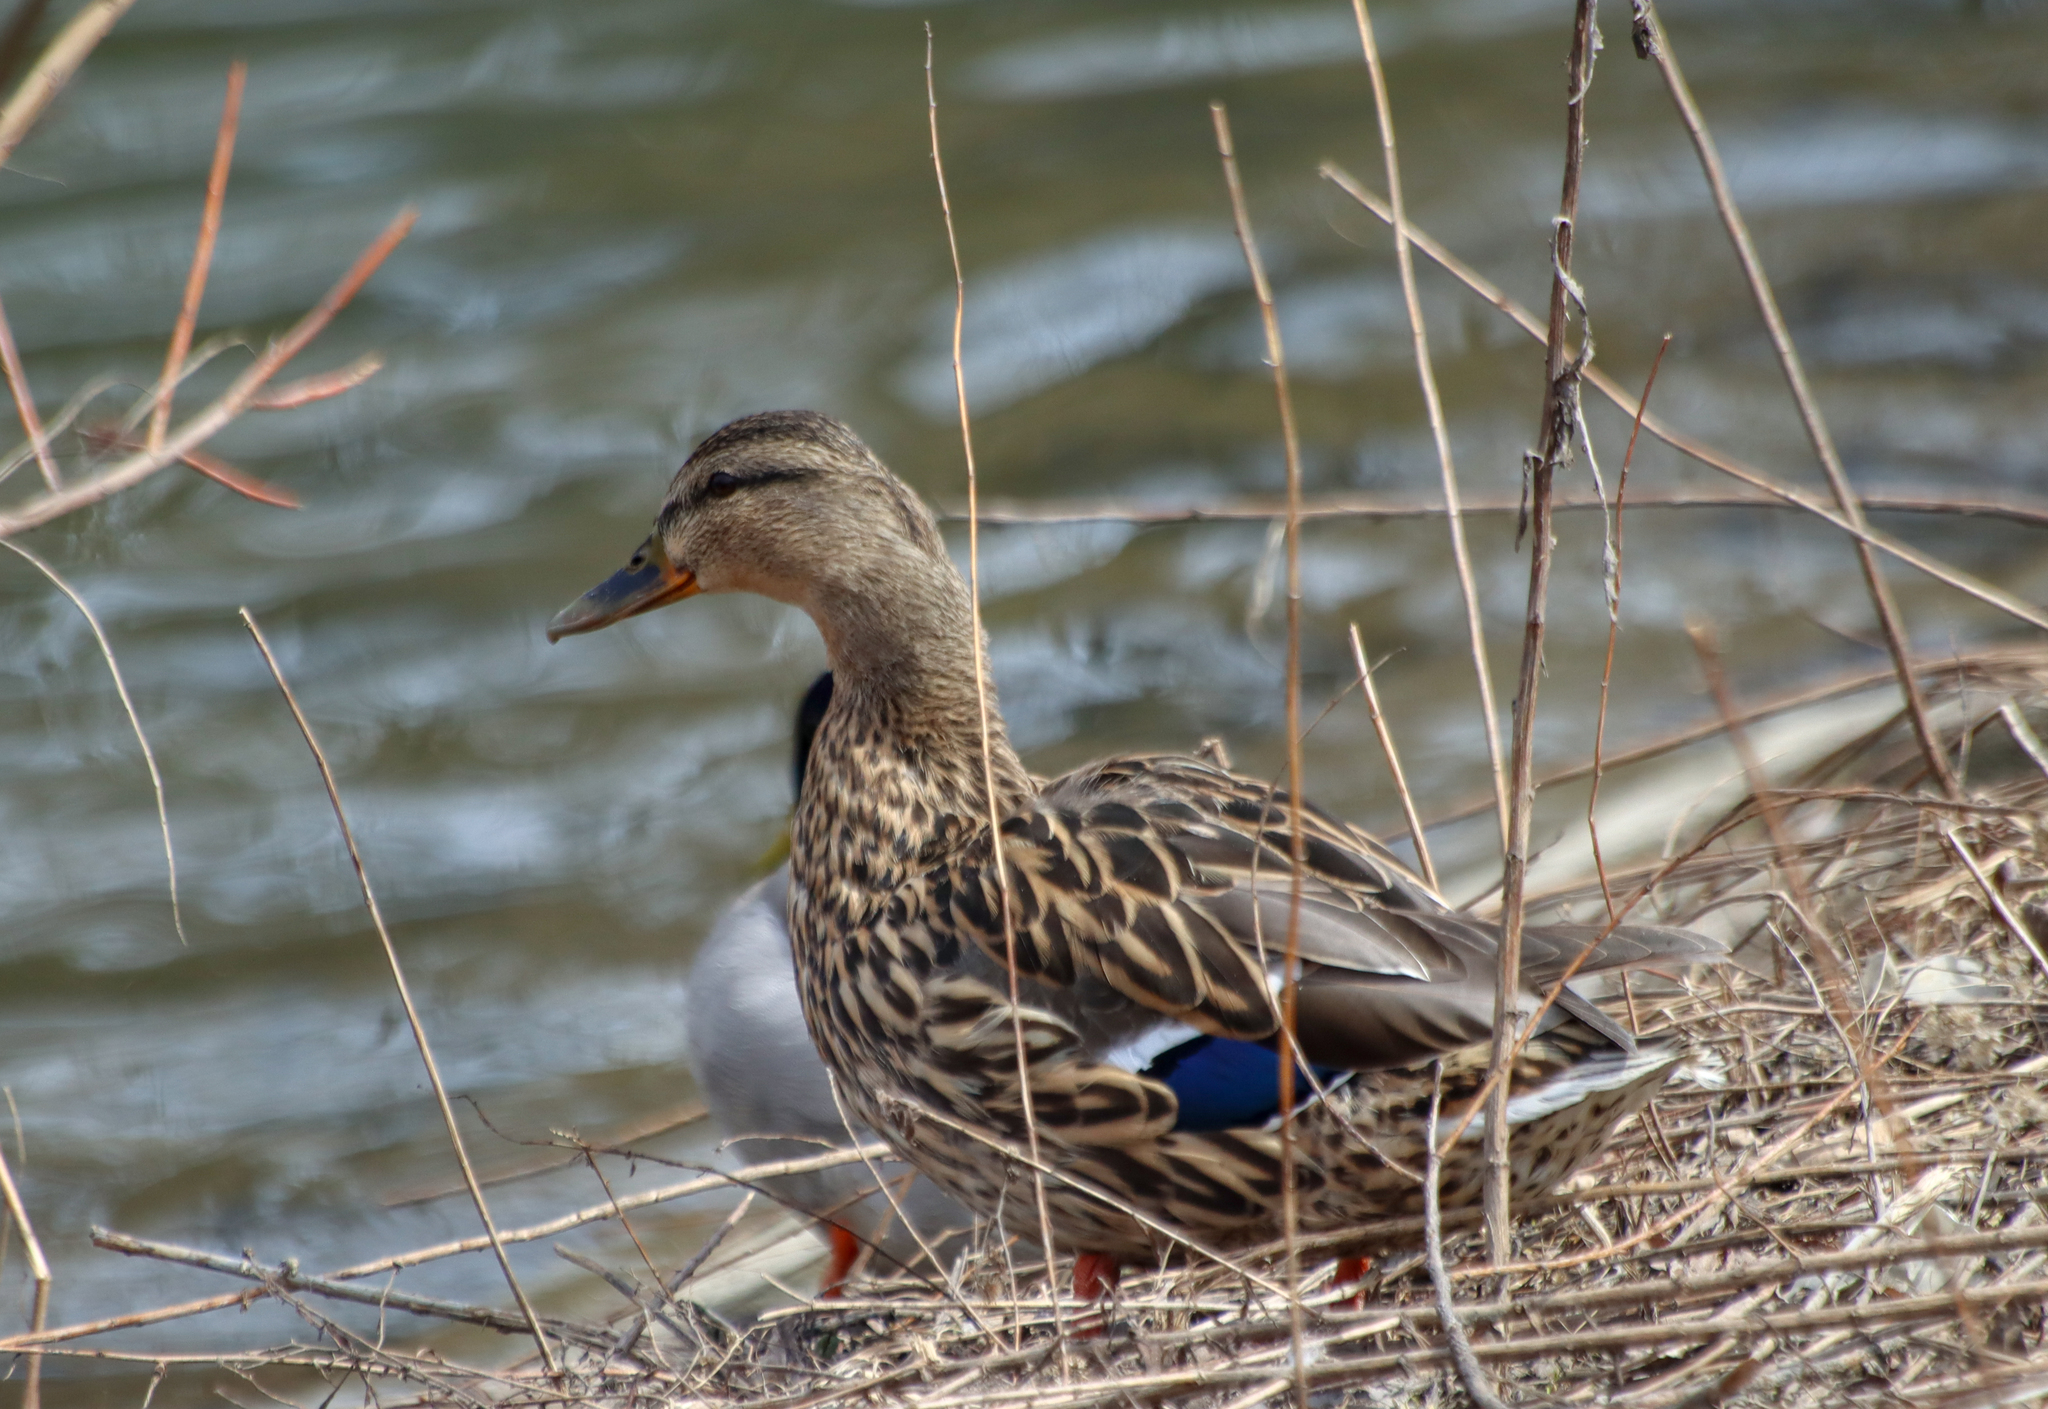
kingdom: Animalia
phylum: Chordata
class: Aves
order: Anseriformes
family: Anatidae
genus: Anas
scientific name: Anas platyrhynchos
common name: Mallard
